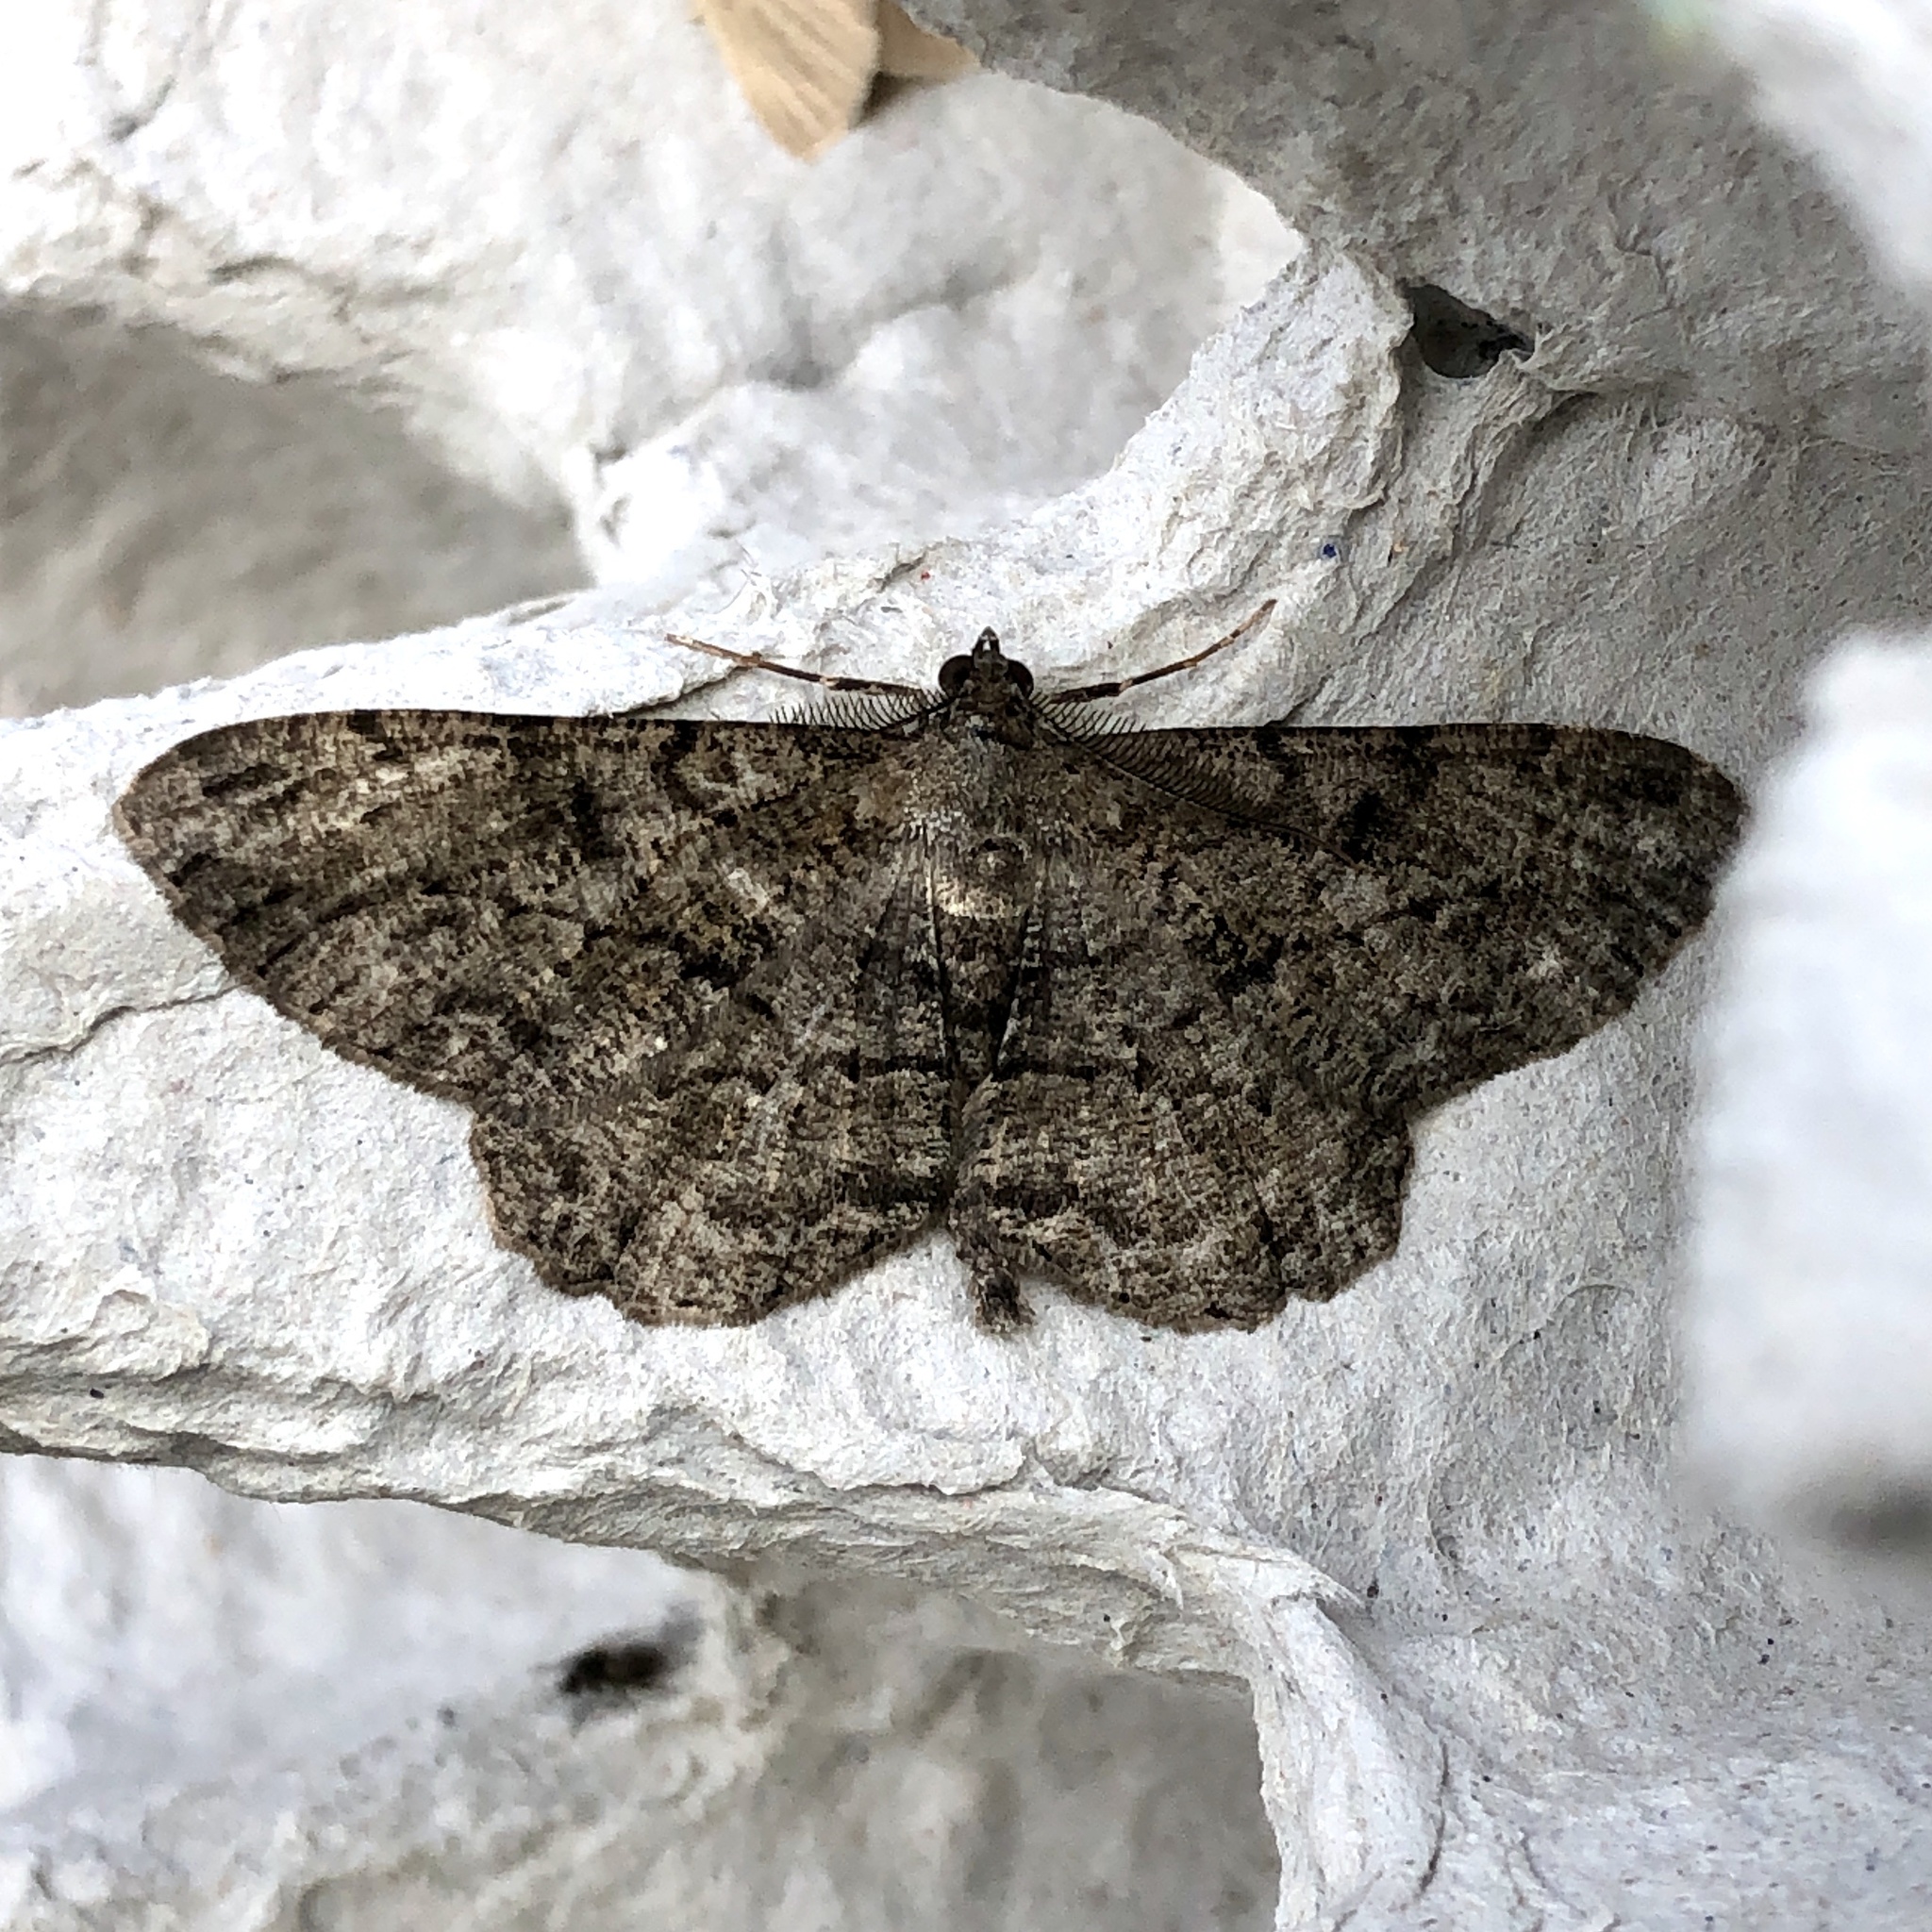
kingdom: Animalia
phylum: Arthropoda
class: Insecta
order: Lepidoptera
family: Geometridae
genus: Peribatodes
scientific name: Peribatodes rhomboidaria
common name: Willow beauty
